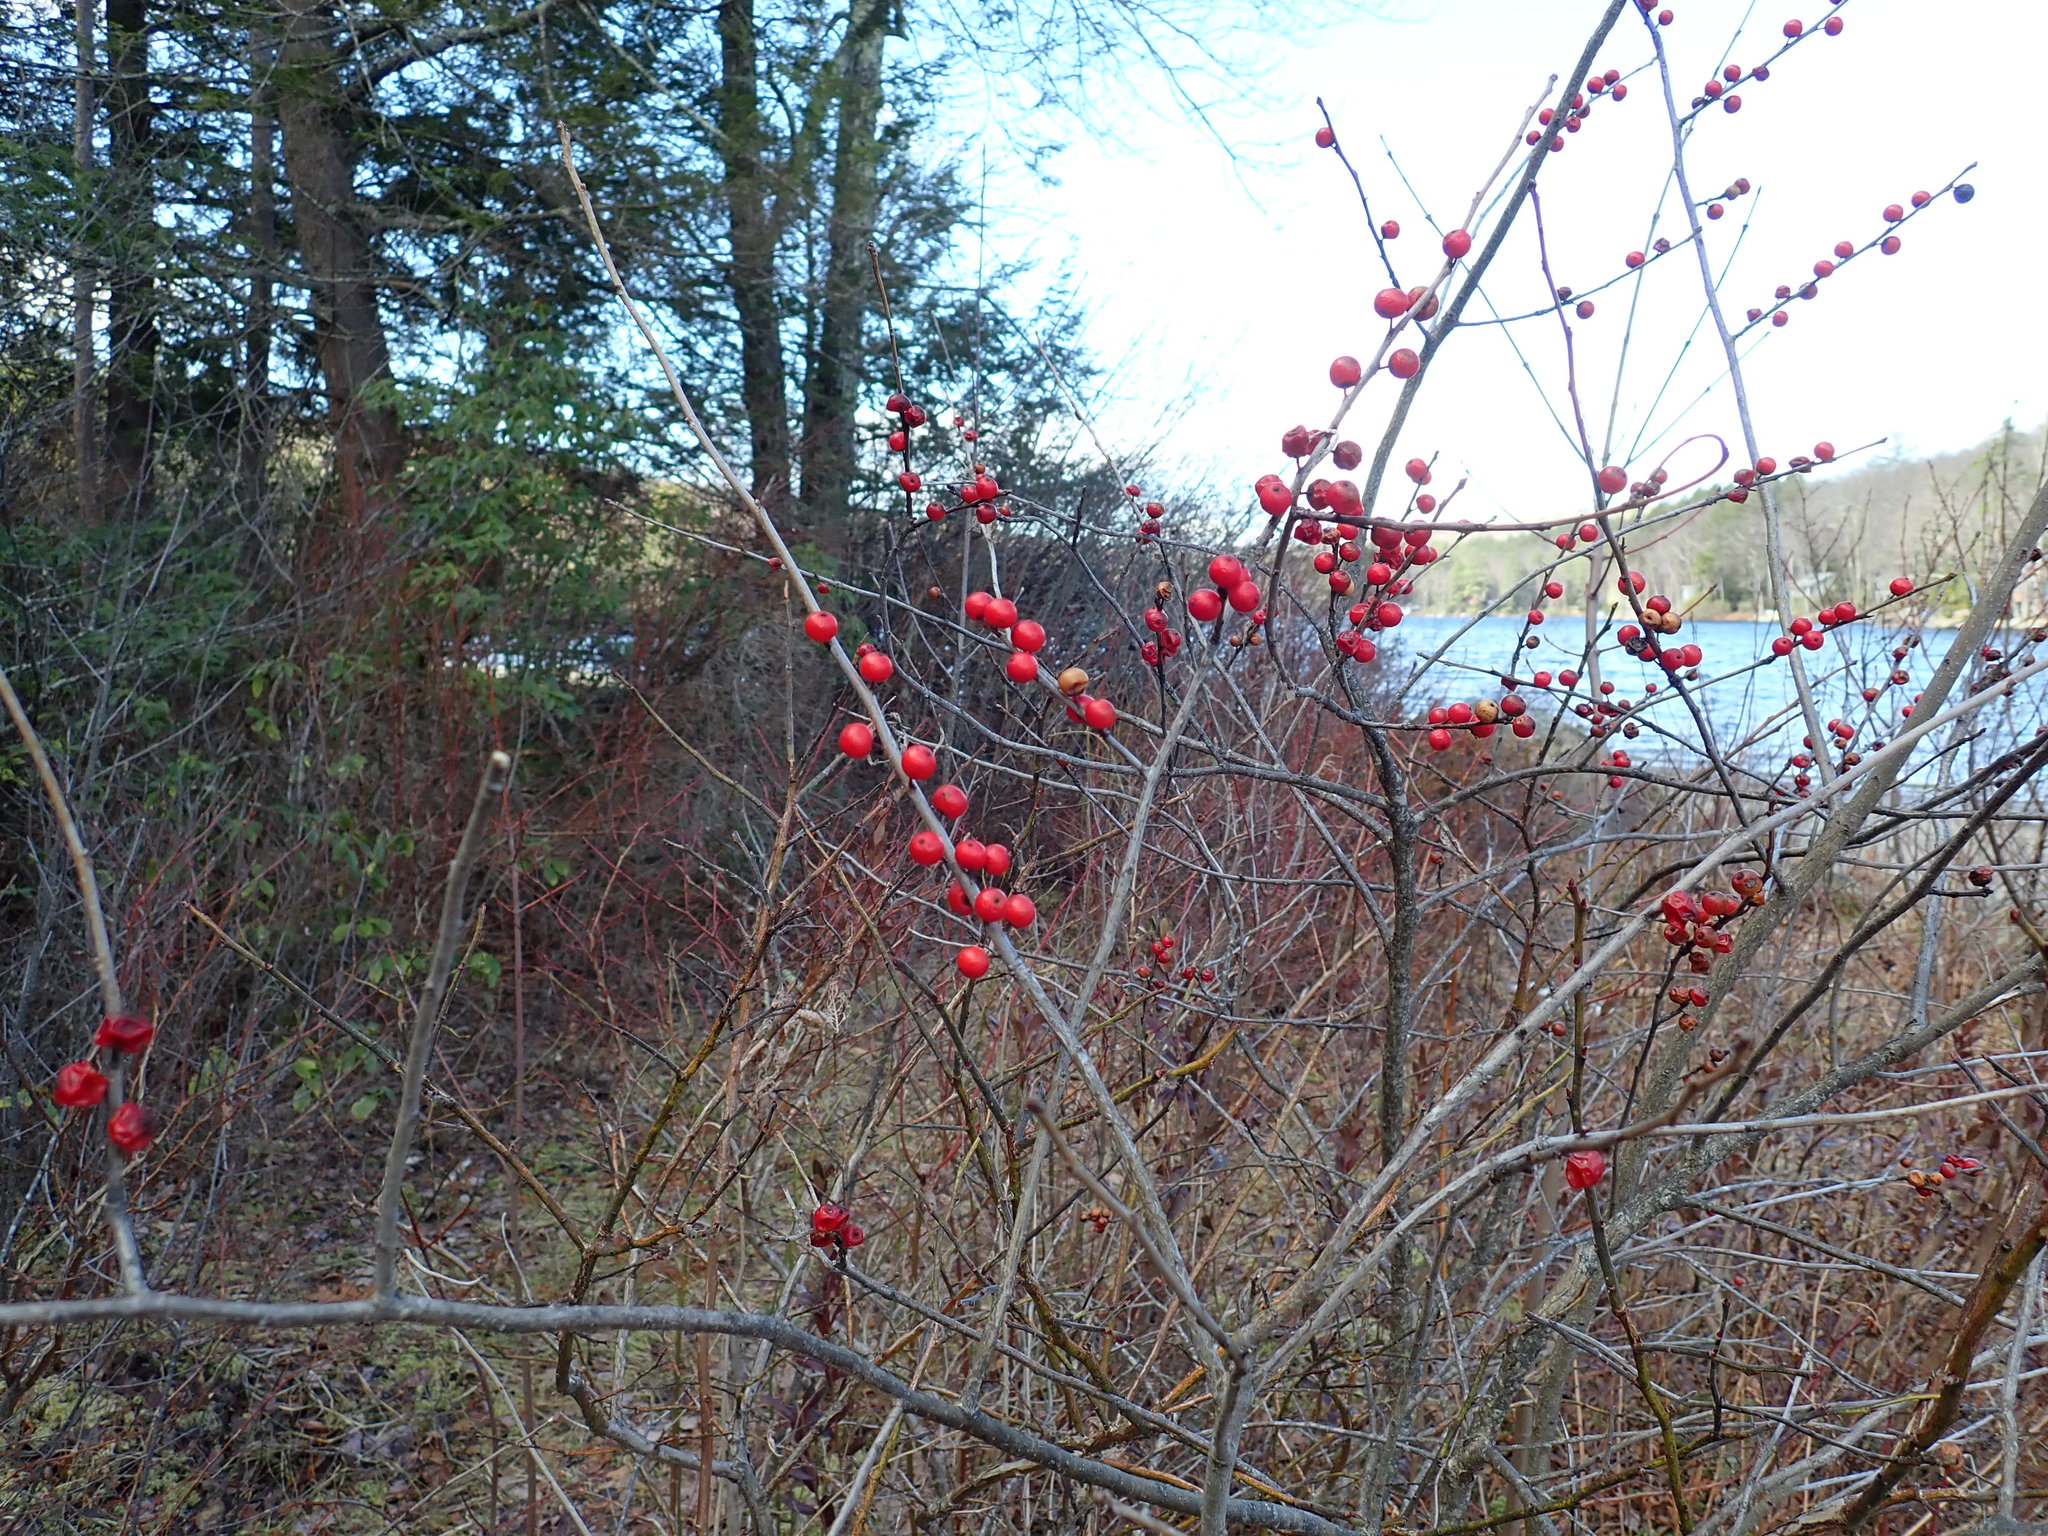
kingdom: Plantae
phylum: Tracheophyta
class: Magnoliopsida
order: Aquifoliales
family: Aquifoliaceae
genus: Ilex
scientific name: Ilex verticillata
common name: Virginia winterberry
